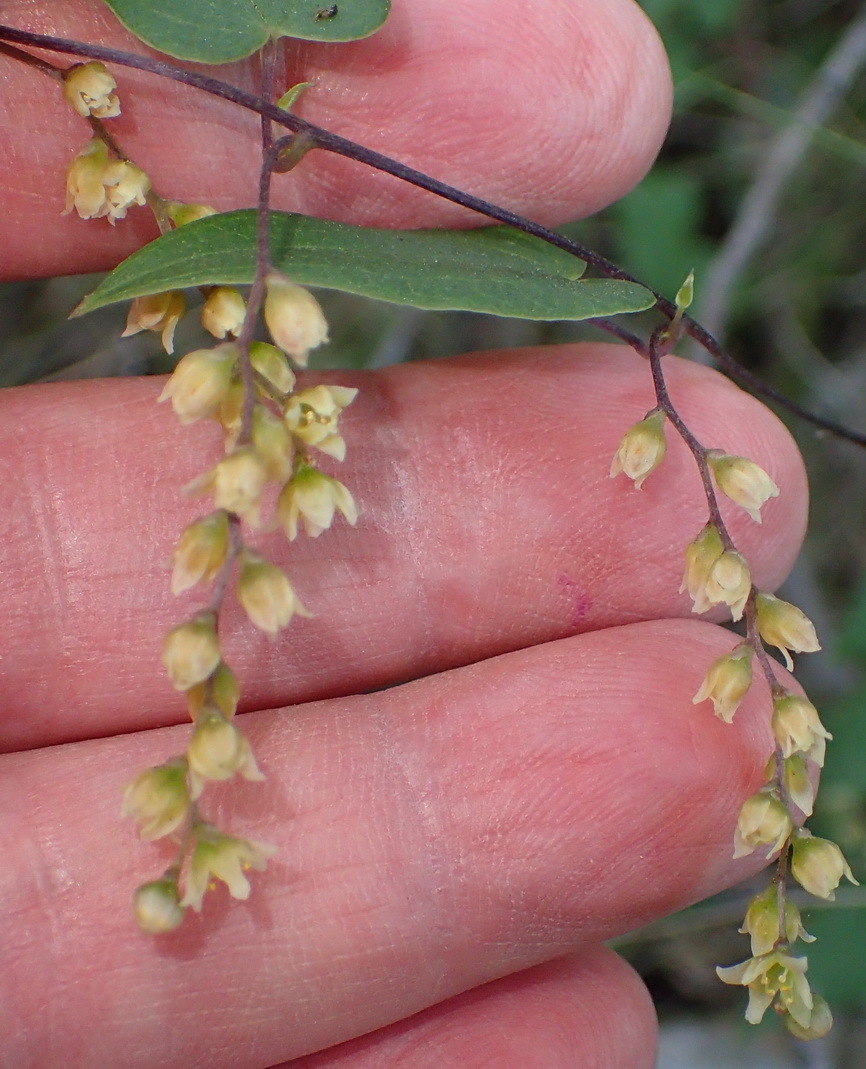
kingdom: Plantae
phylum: Tracheophyta
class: Liliopsida
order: Dioscoreales
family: Dioscoreaceae
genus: Dioscorea
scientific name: Dioscorea burchellii
